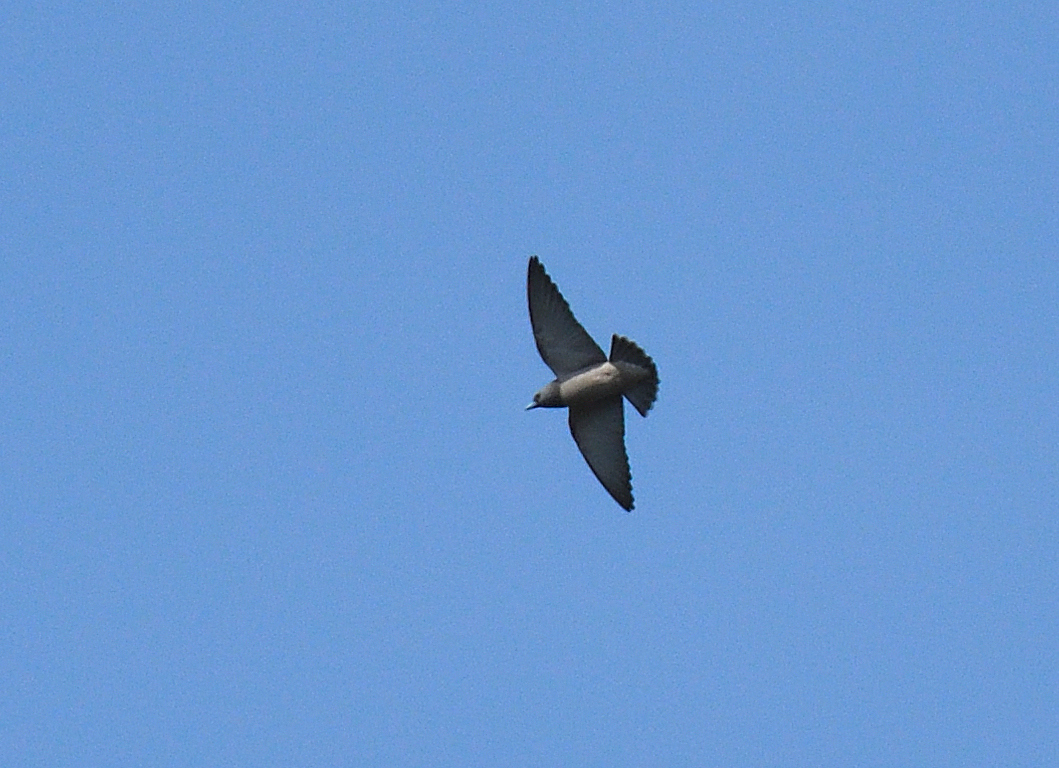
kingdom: Animalia
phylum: Chordata
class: Aves
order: Passeriformes
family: Artamidae
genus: Artamus
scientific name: Artamus fuscus
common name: Ashy woodswallow
